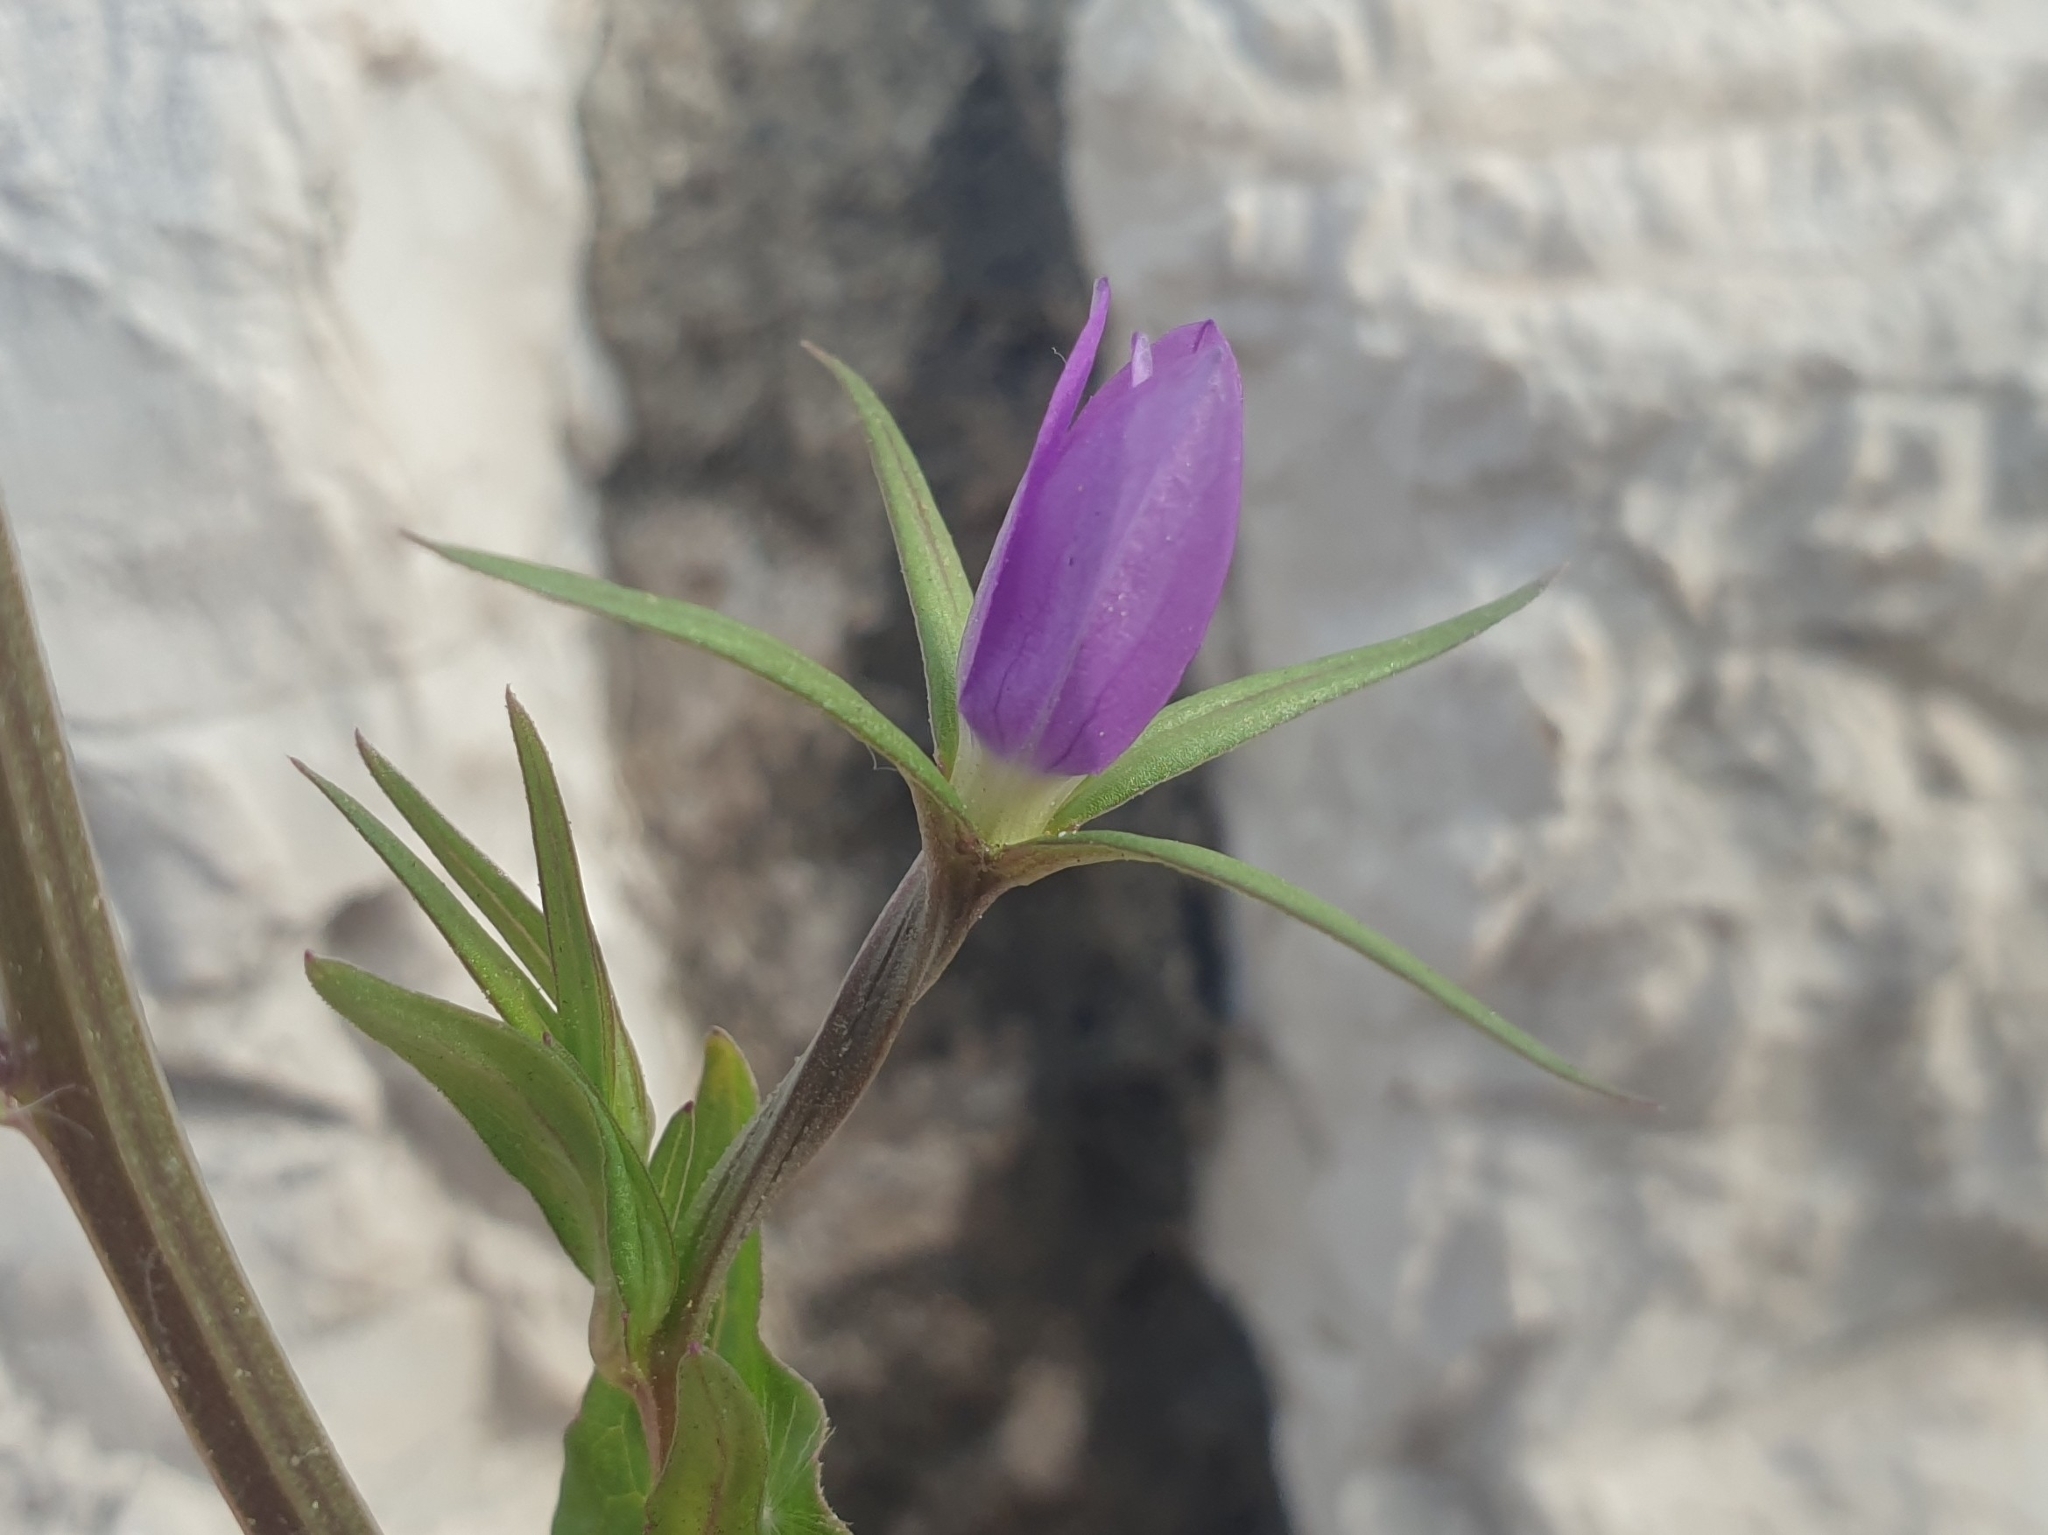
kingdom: Plantae
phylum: Tracheophyta
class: Magnoliopsida
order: Asterales
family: Campanulaceae
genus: Legousia
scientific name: Legousia falcata
